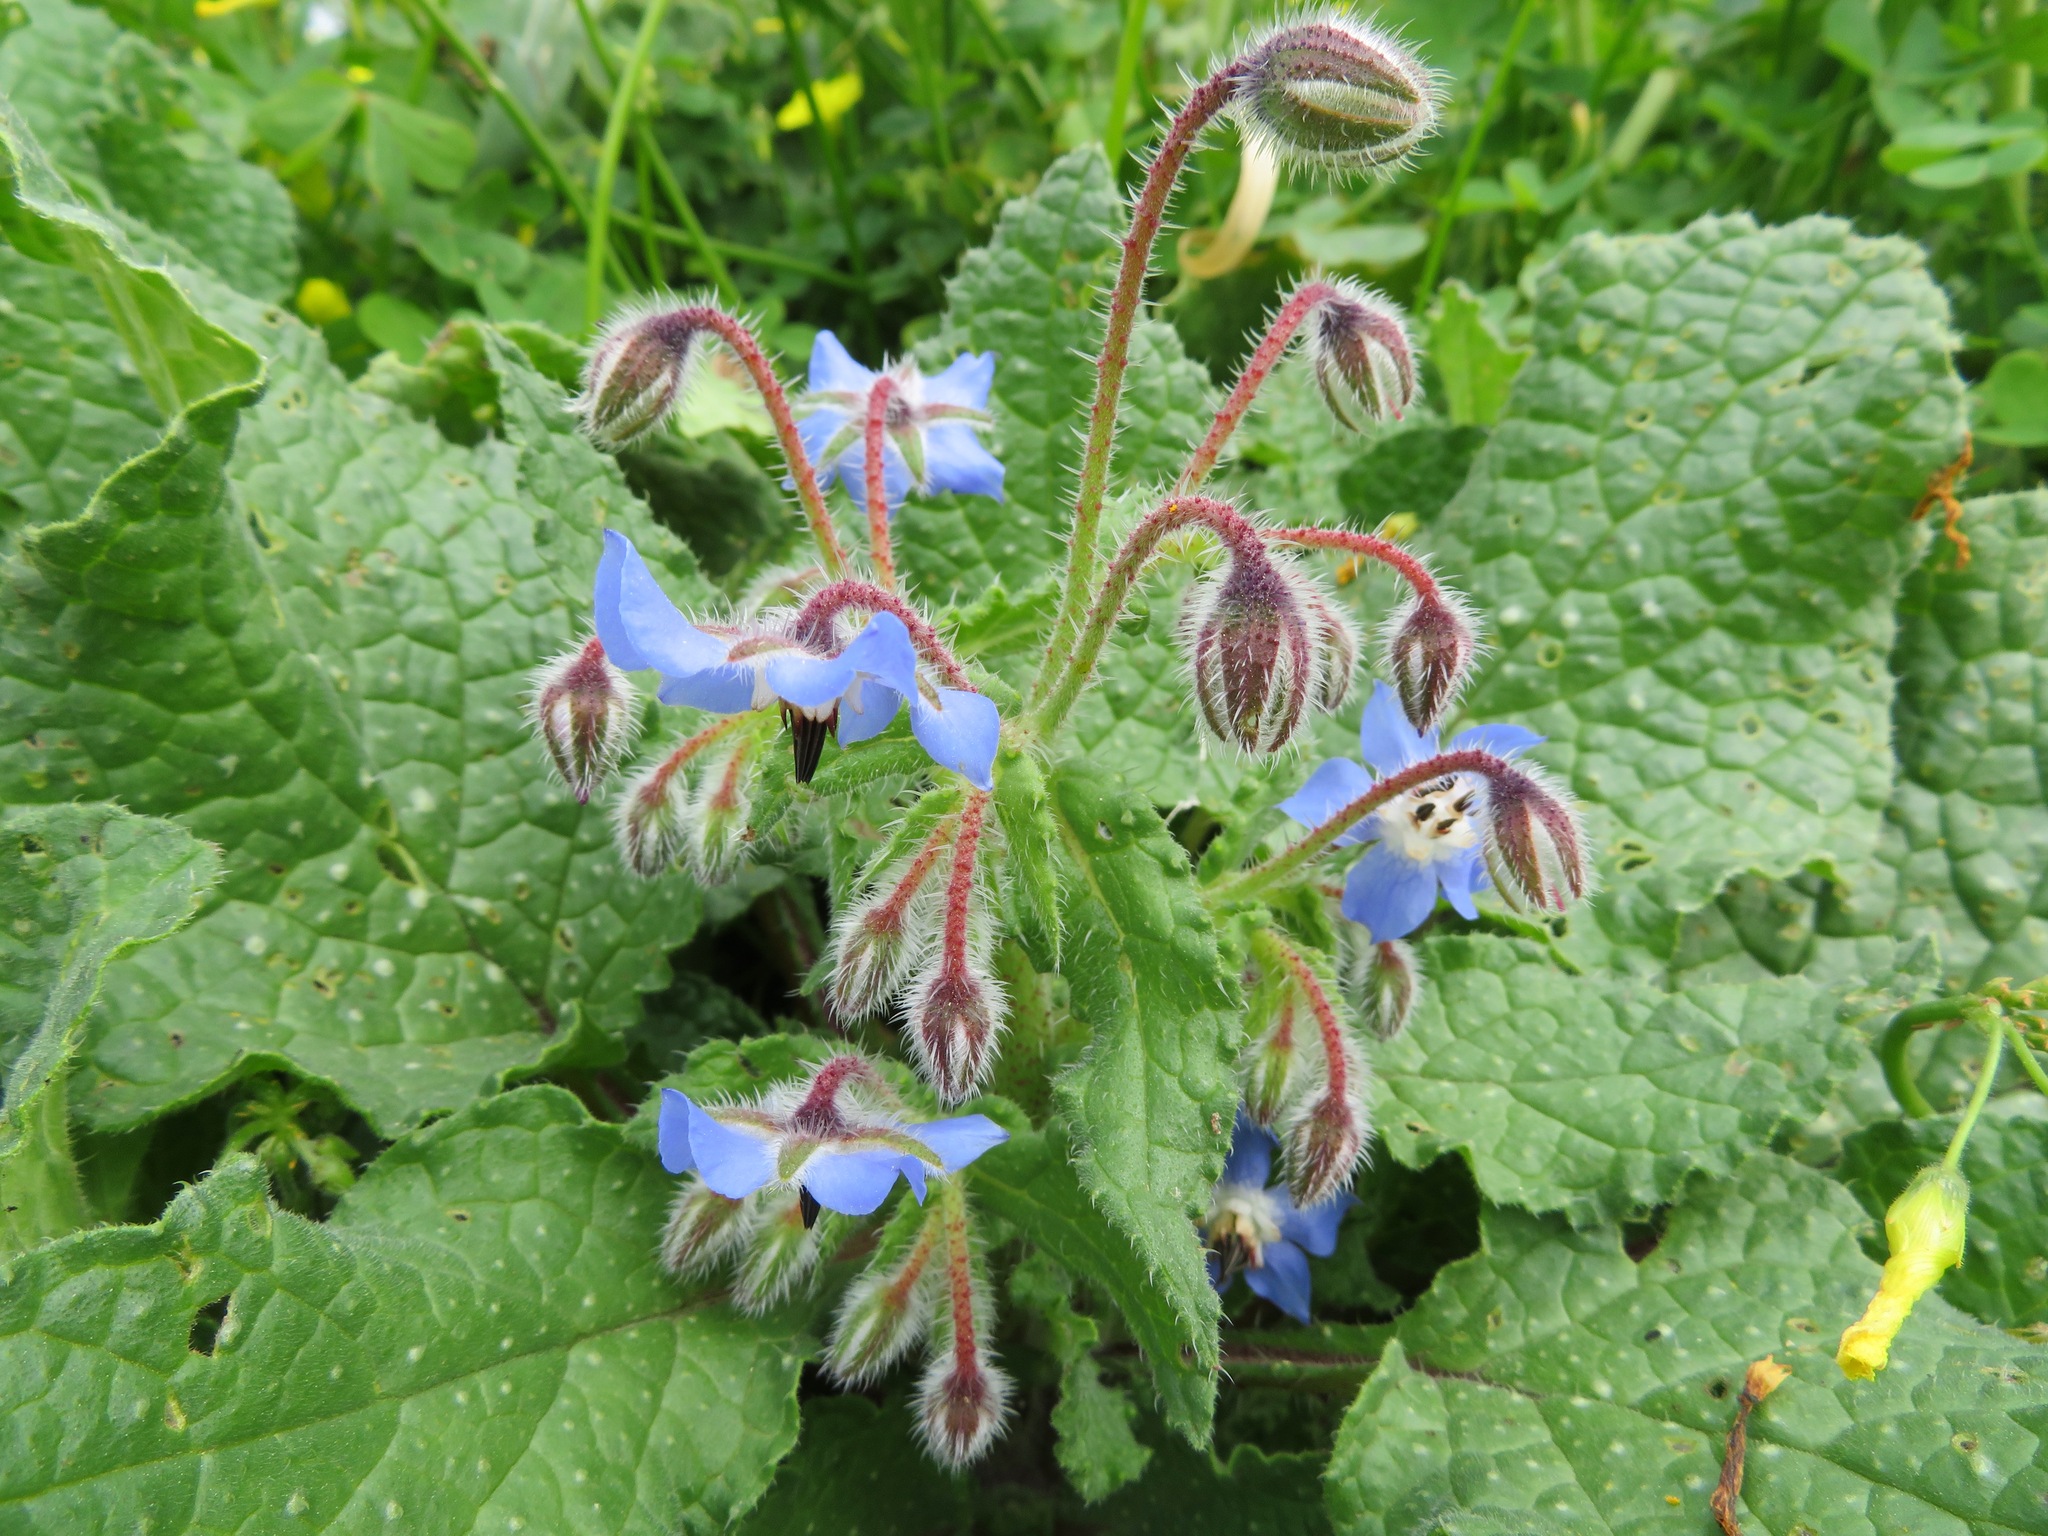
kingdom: Plantae
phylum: Tracheophyta
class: Magnoliopsida
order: Boraginales
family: Boraginaceae
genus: Borago
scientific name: Borago officinalis
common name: Borage
